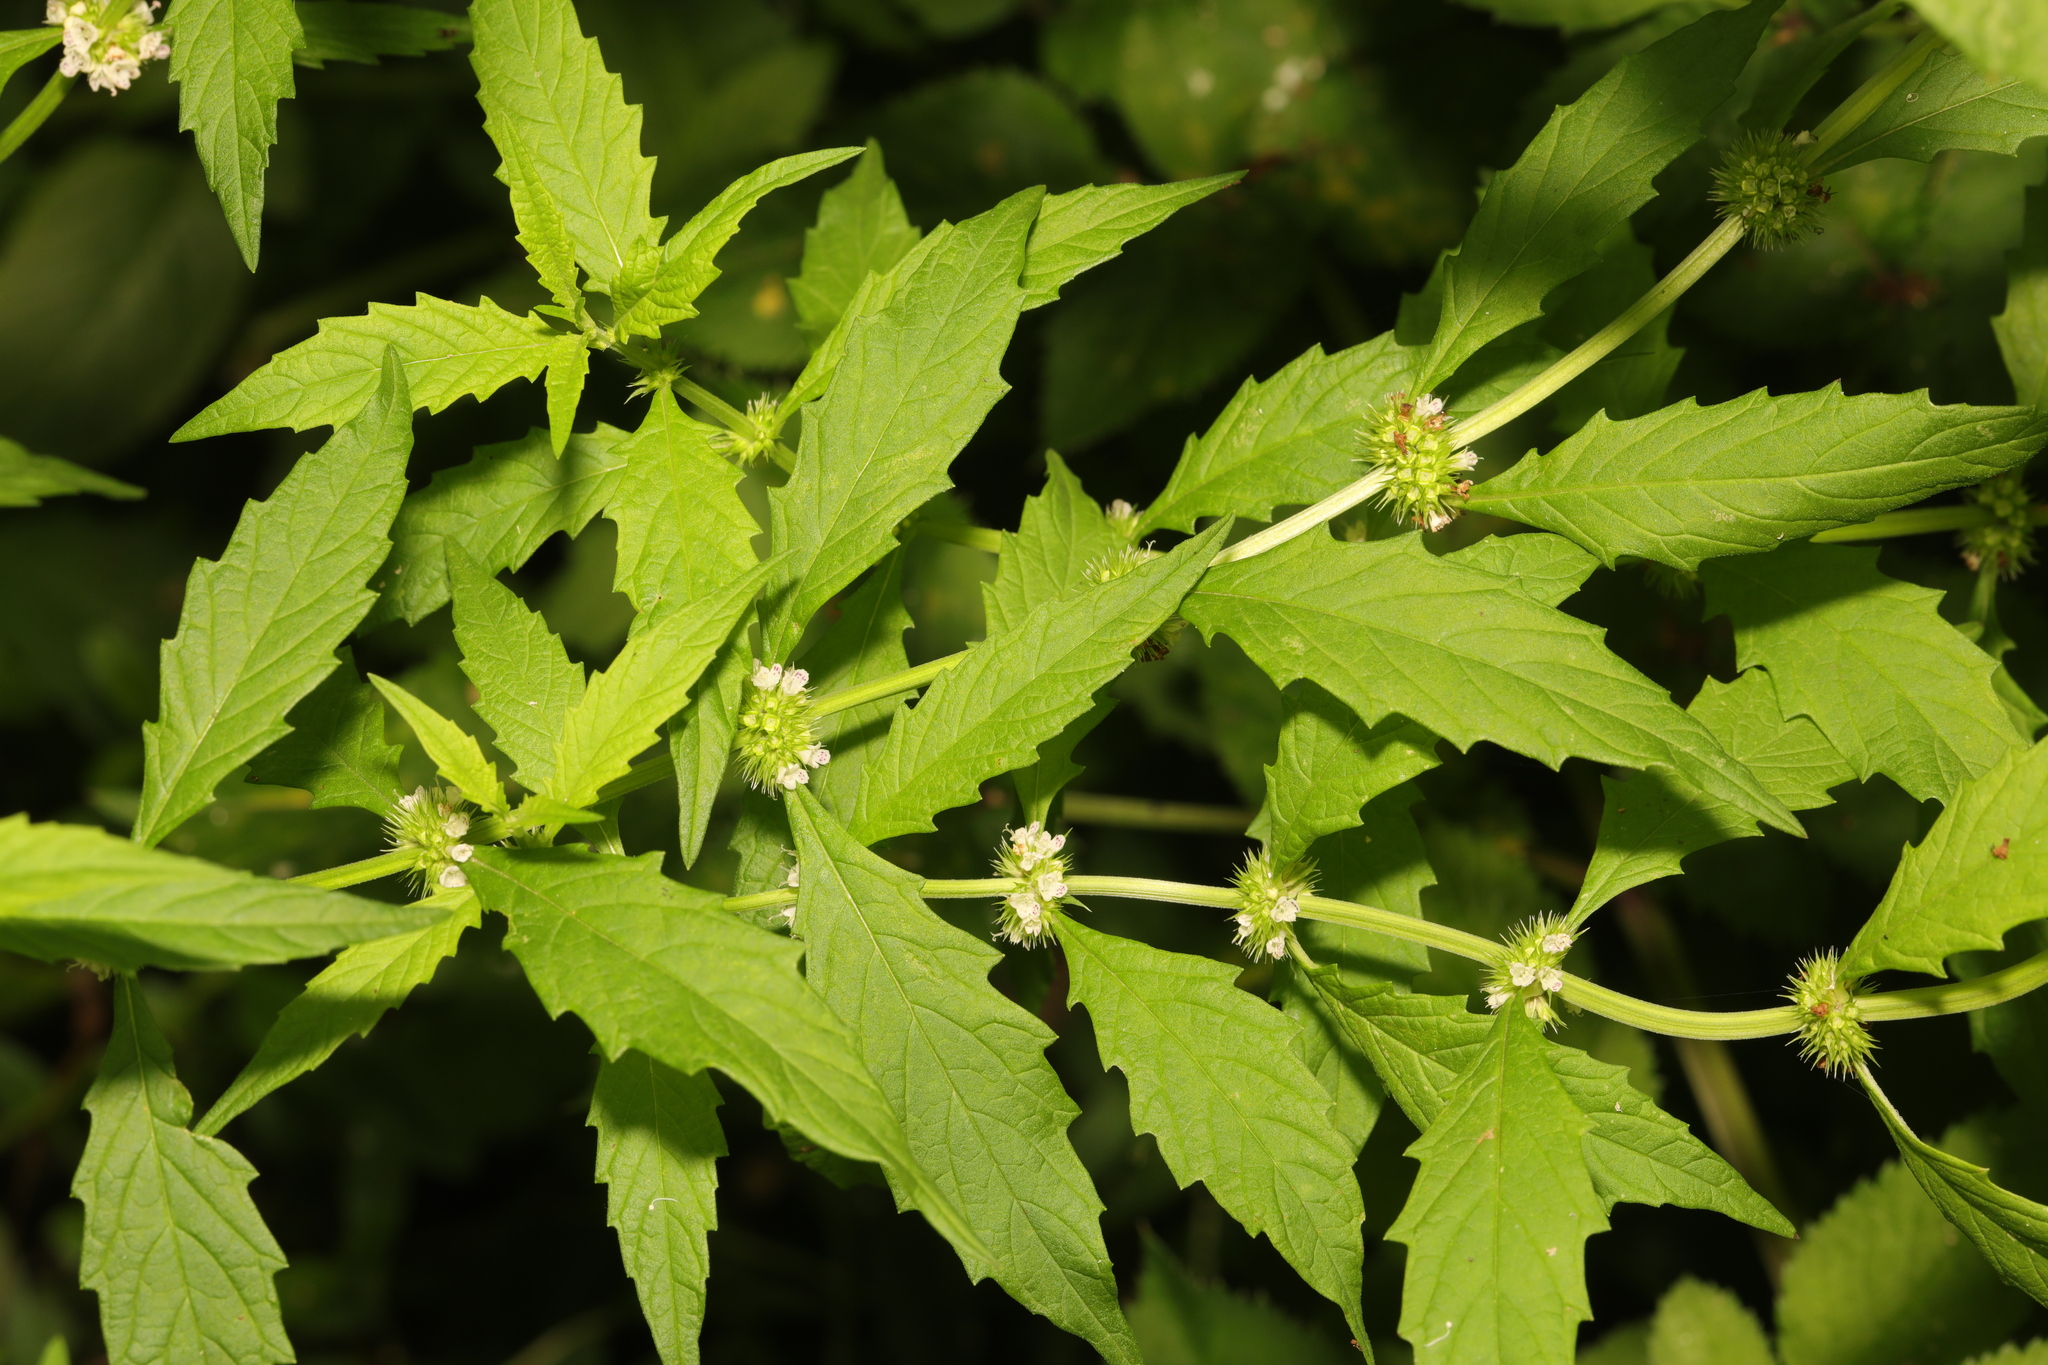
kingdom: Plantae
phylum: Tracheophyta
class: Magnoliopsida
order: Lamiales
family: Lamiaceae
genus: Lycopus
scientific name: Lycopus europaeus
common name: European bugleweed
